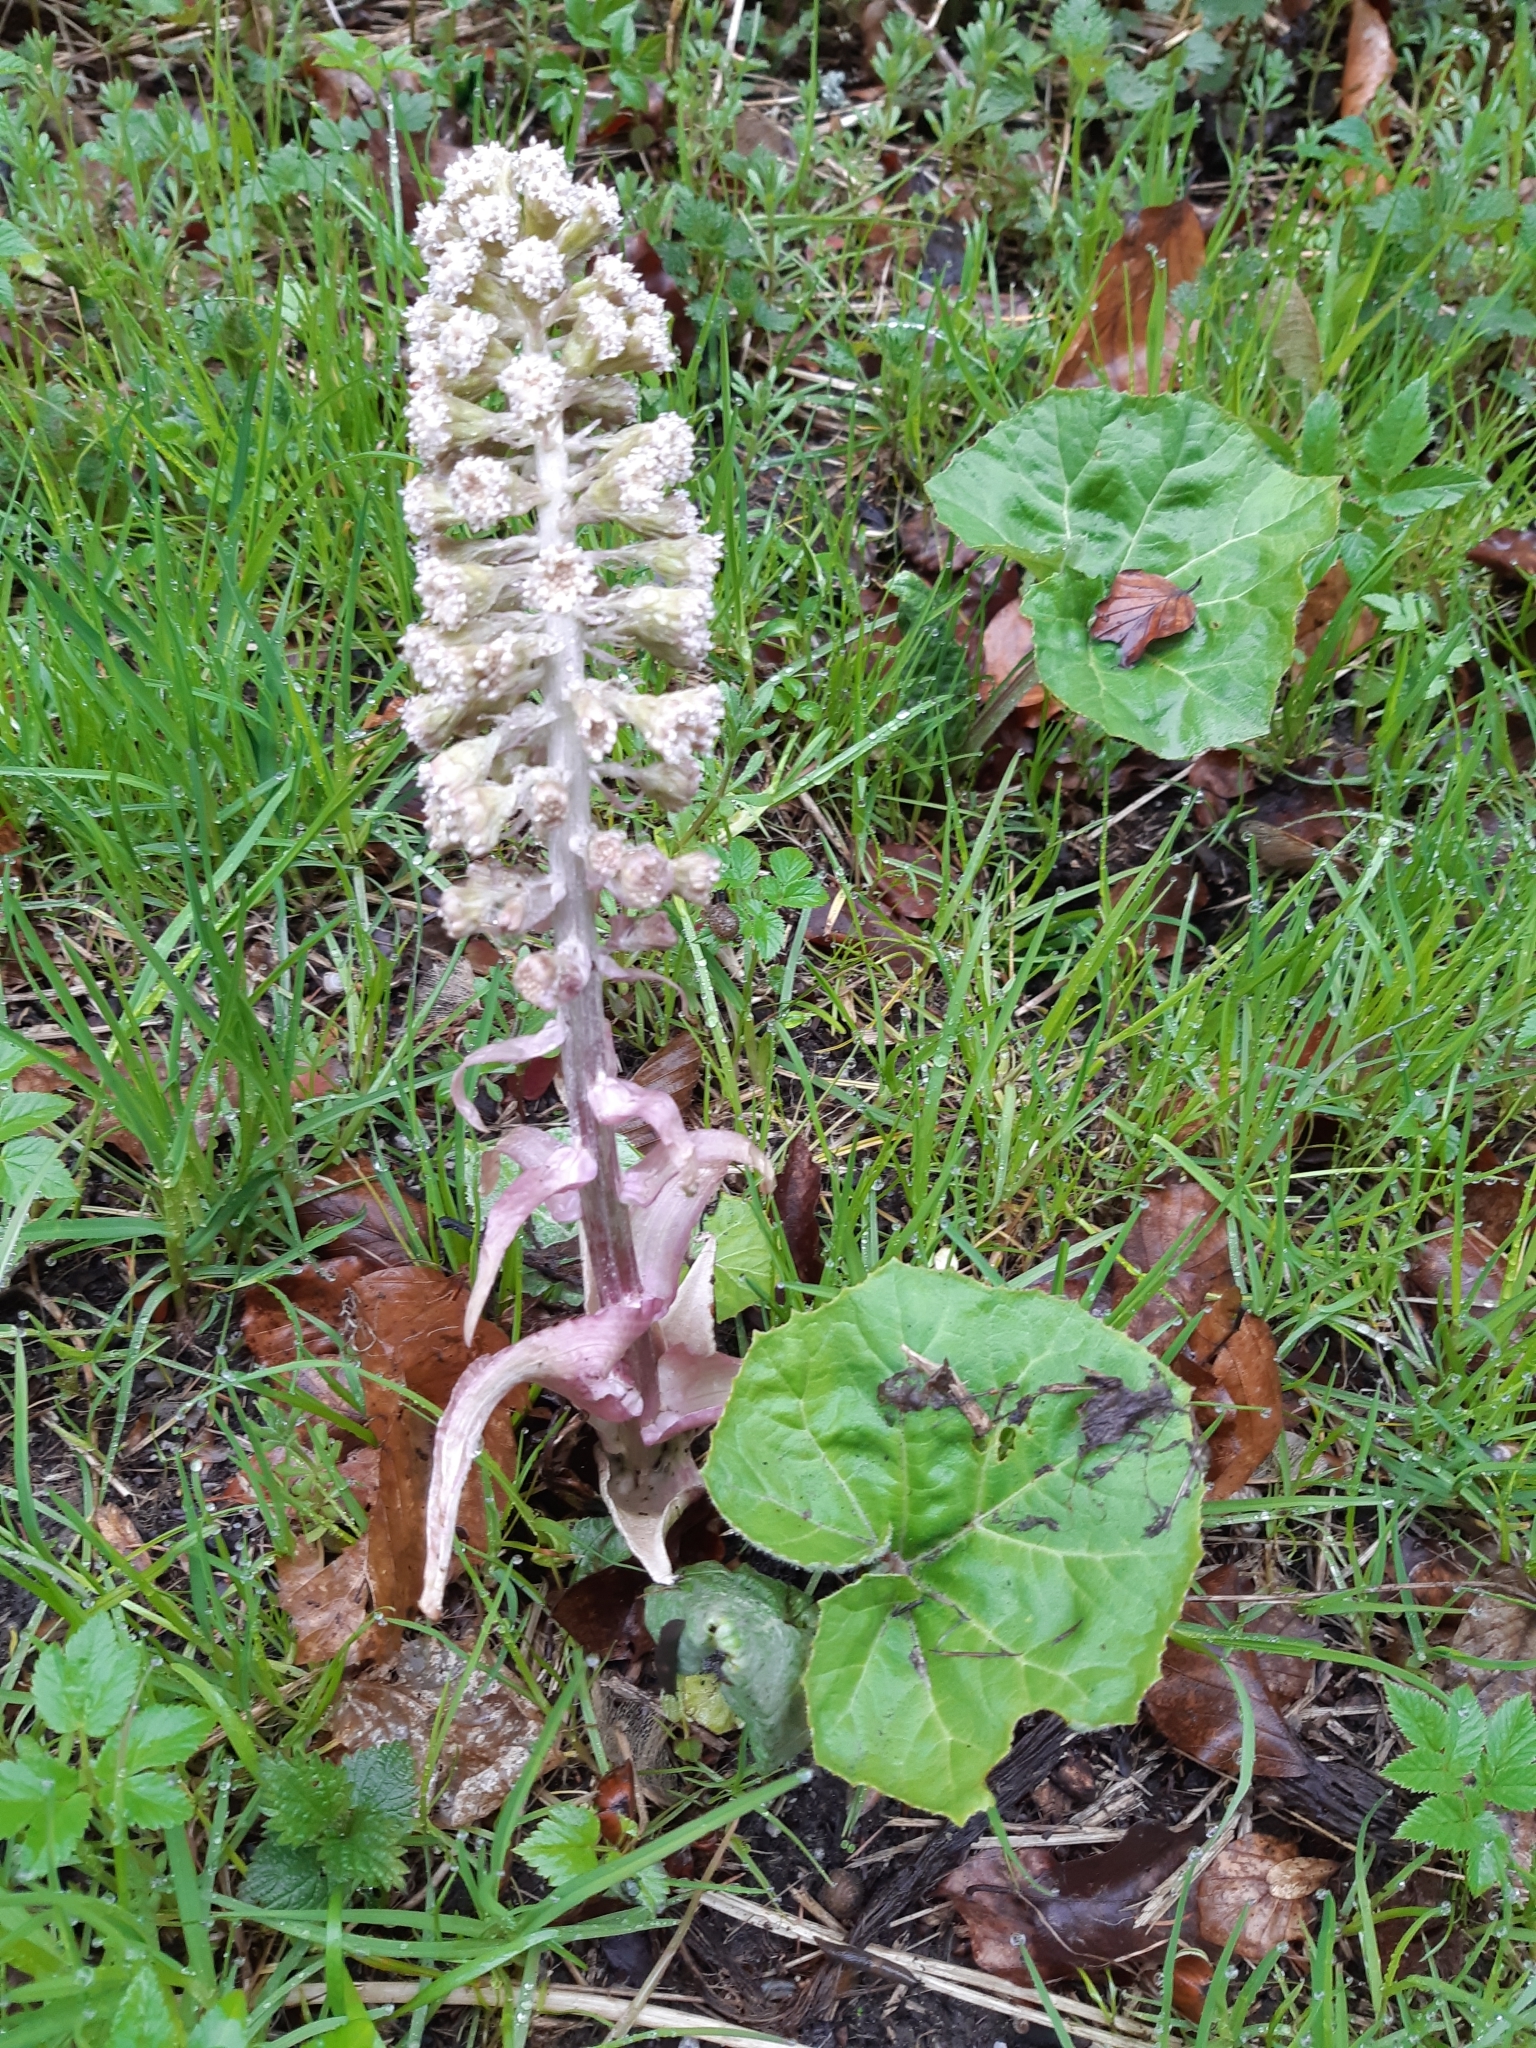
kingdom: Plantae
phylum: Tracheophyta
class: Magnoliopsida
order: Asterales
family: Asteraceae
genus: Petasites
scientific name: Petasites hybridus
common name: Butterbur
